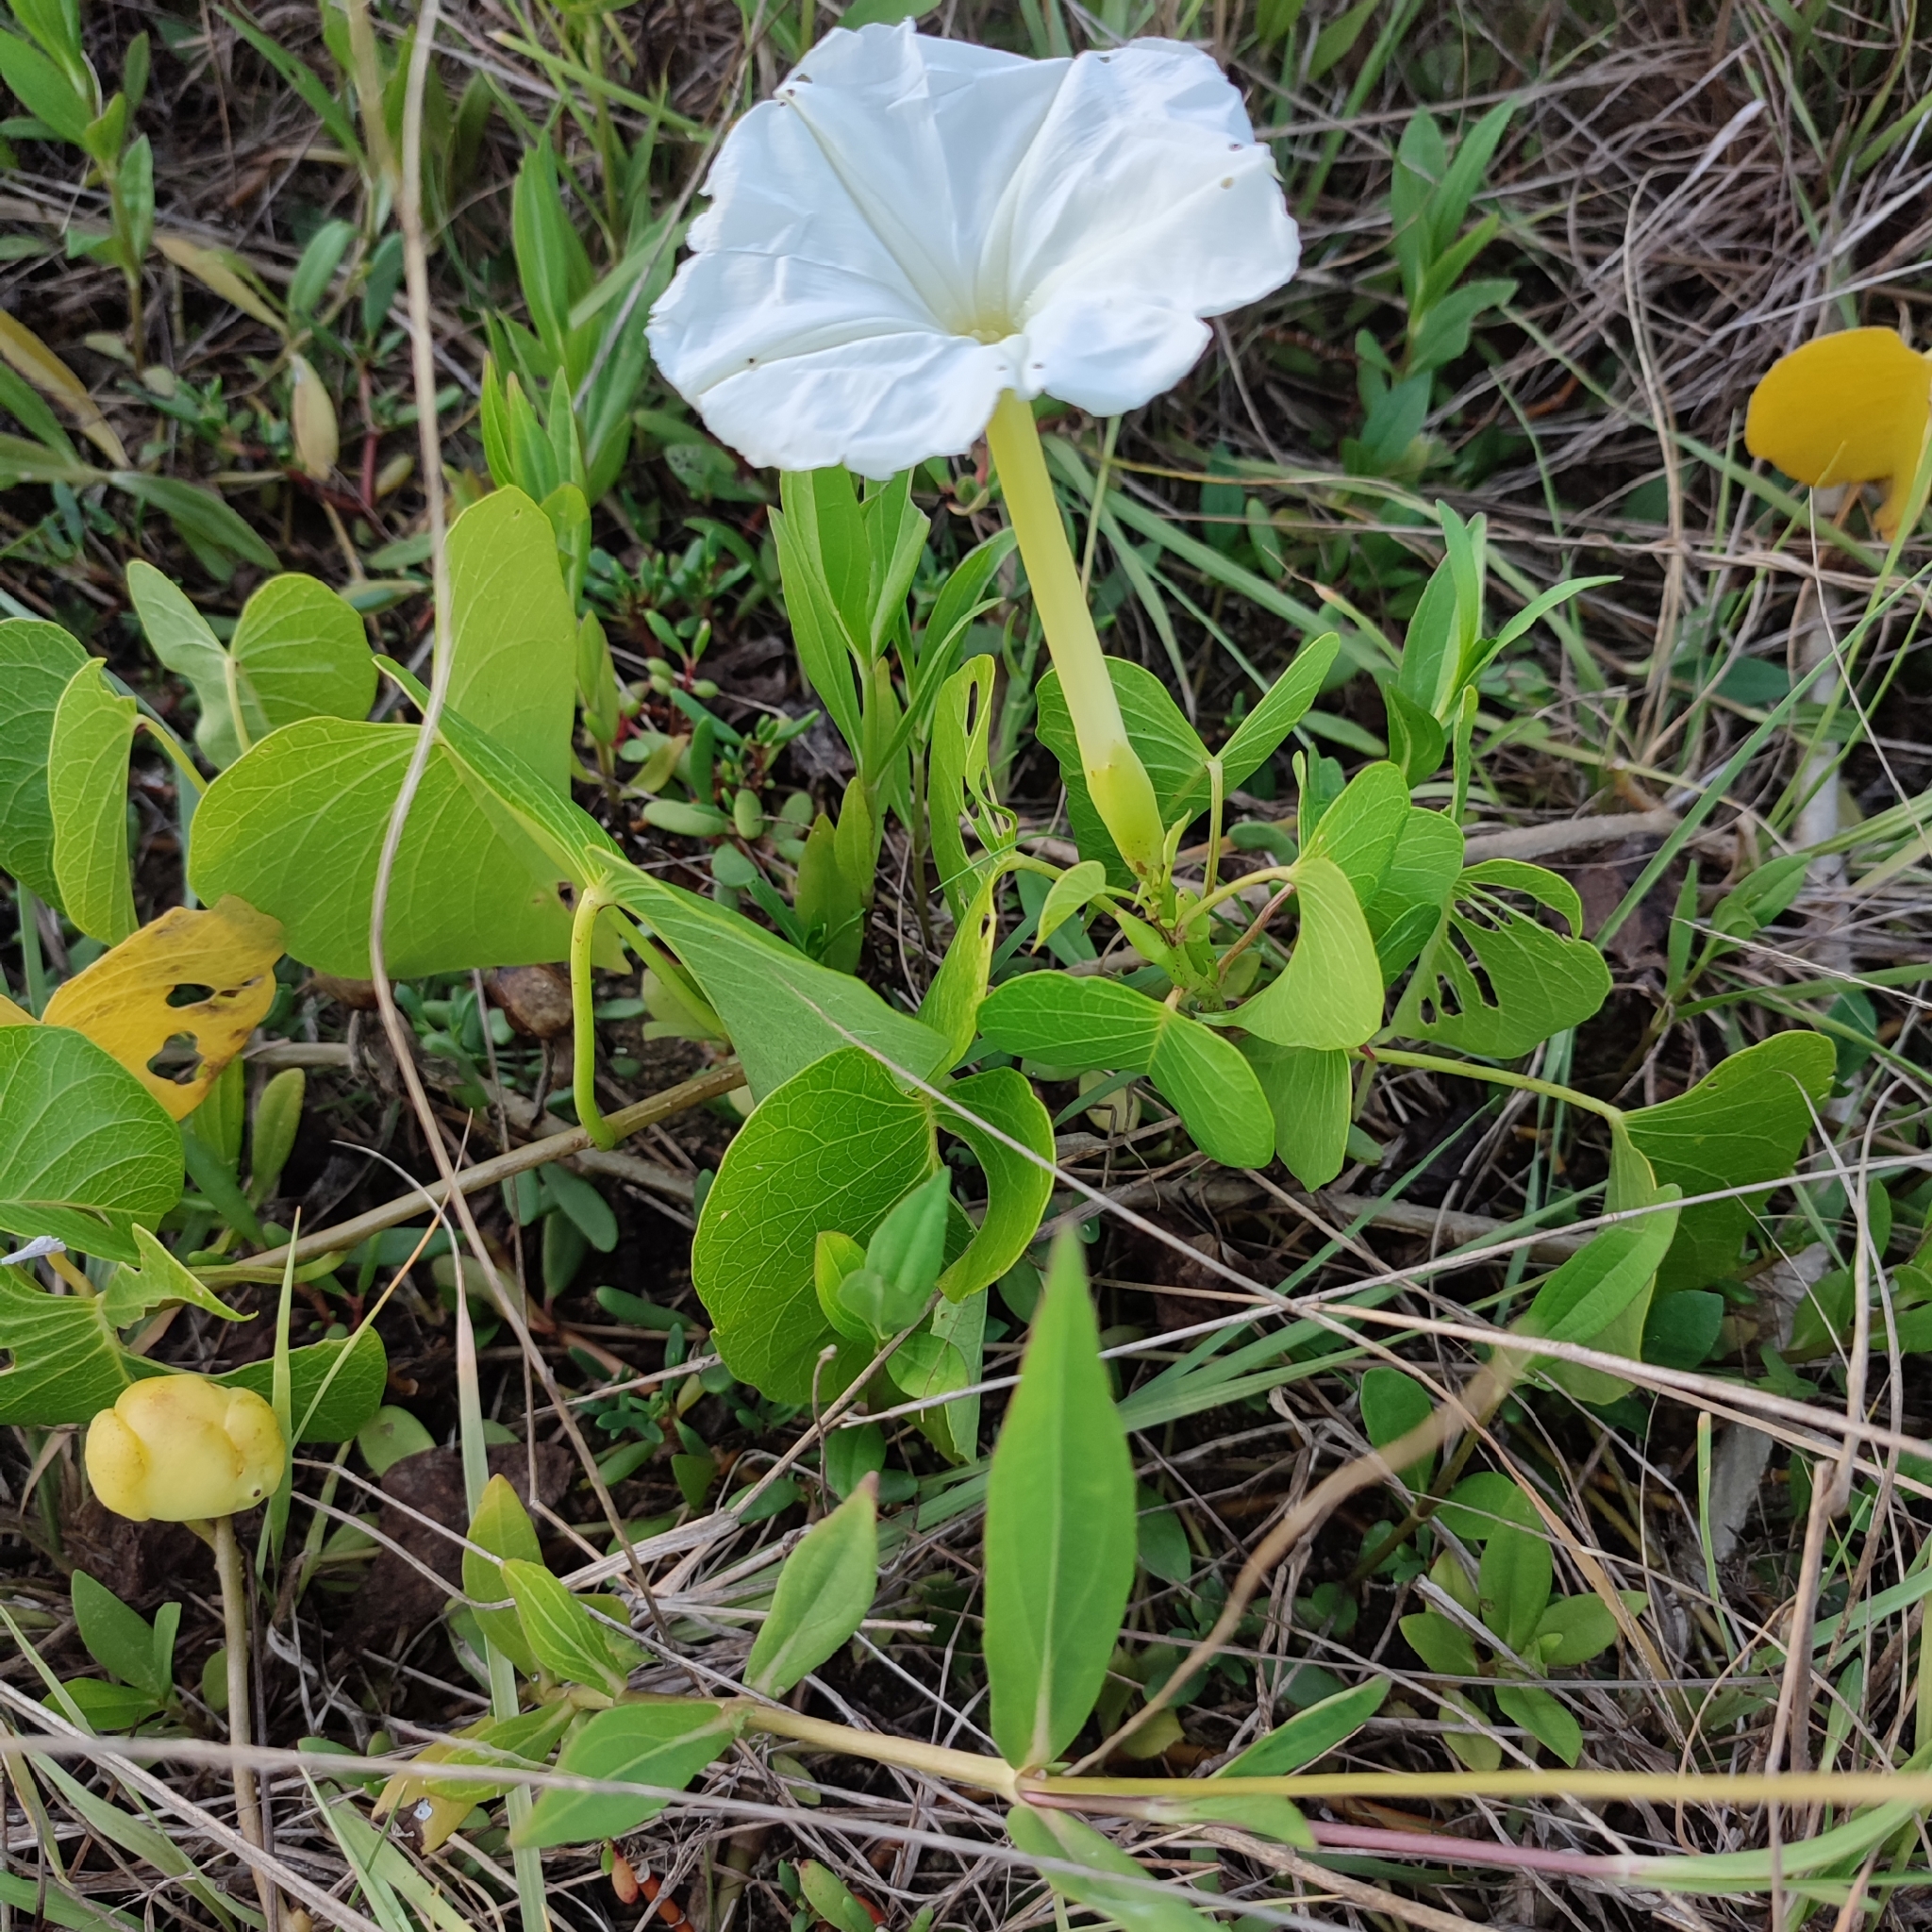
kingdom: Plantae
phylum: Tracheophyta
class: Magnoliopsida
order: Solanales
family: Convolvulaceae
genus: Ipomoea
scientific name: Ipomoea violacea
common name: Beach moonflower
